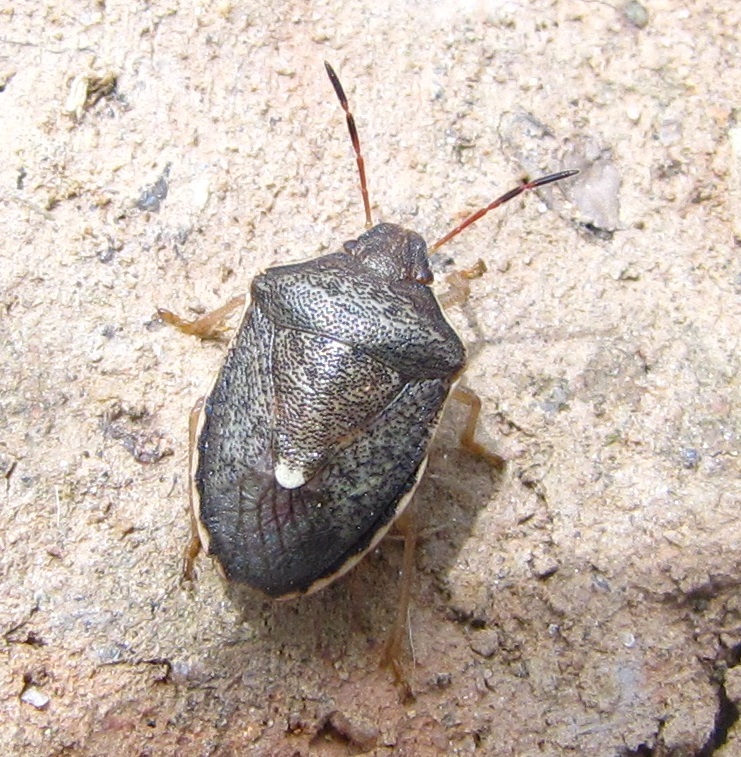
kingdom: Animalia
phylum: Arthropoda
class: Insecta
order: Hemiptera
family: Pentatomidae
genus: Holcostethus
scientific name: Holcostethus limbolarius
